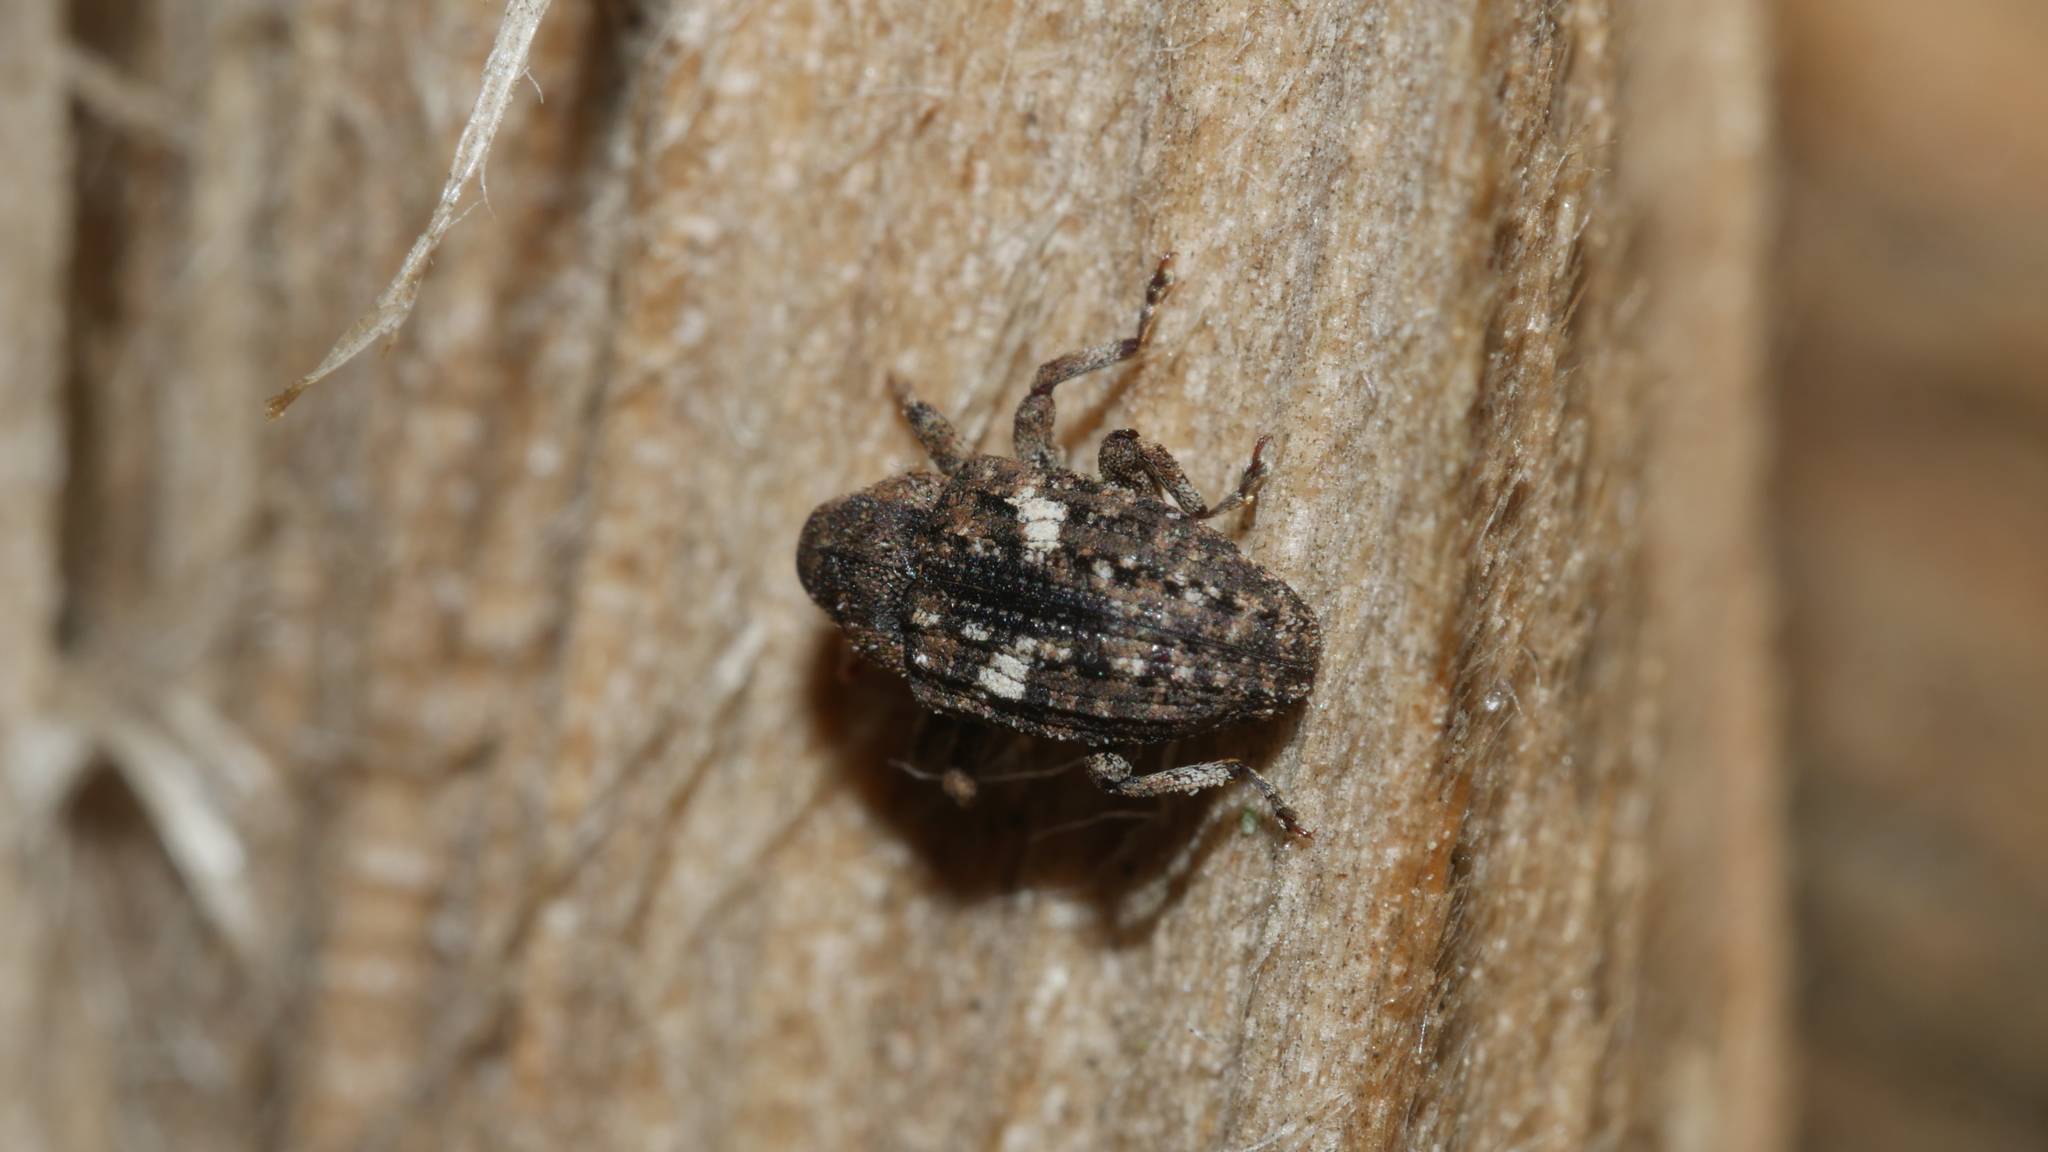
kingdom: Animalia
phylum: Arthropoda
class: Insecta
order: Coleoptera
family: Curculionidae
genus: Eubulus
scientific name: Eubulus bisignatus
